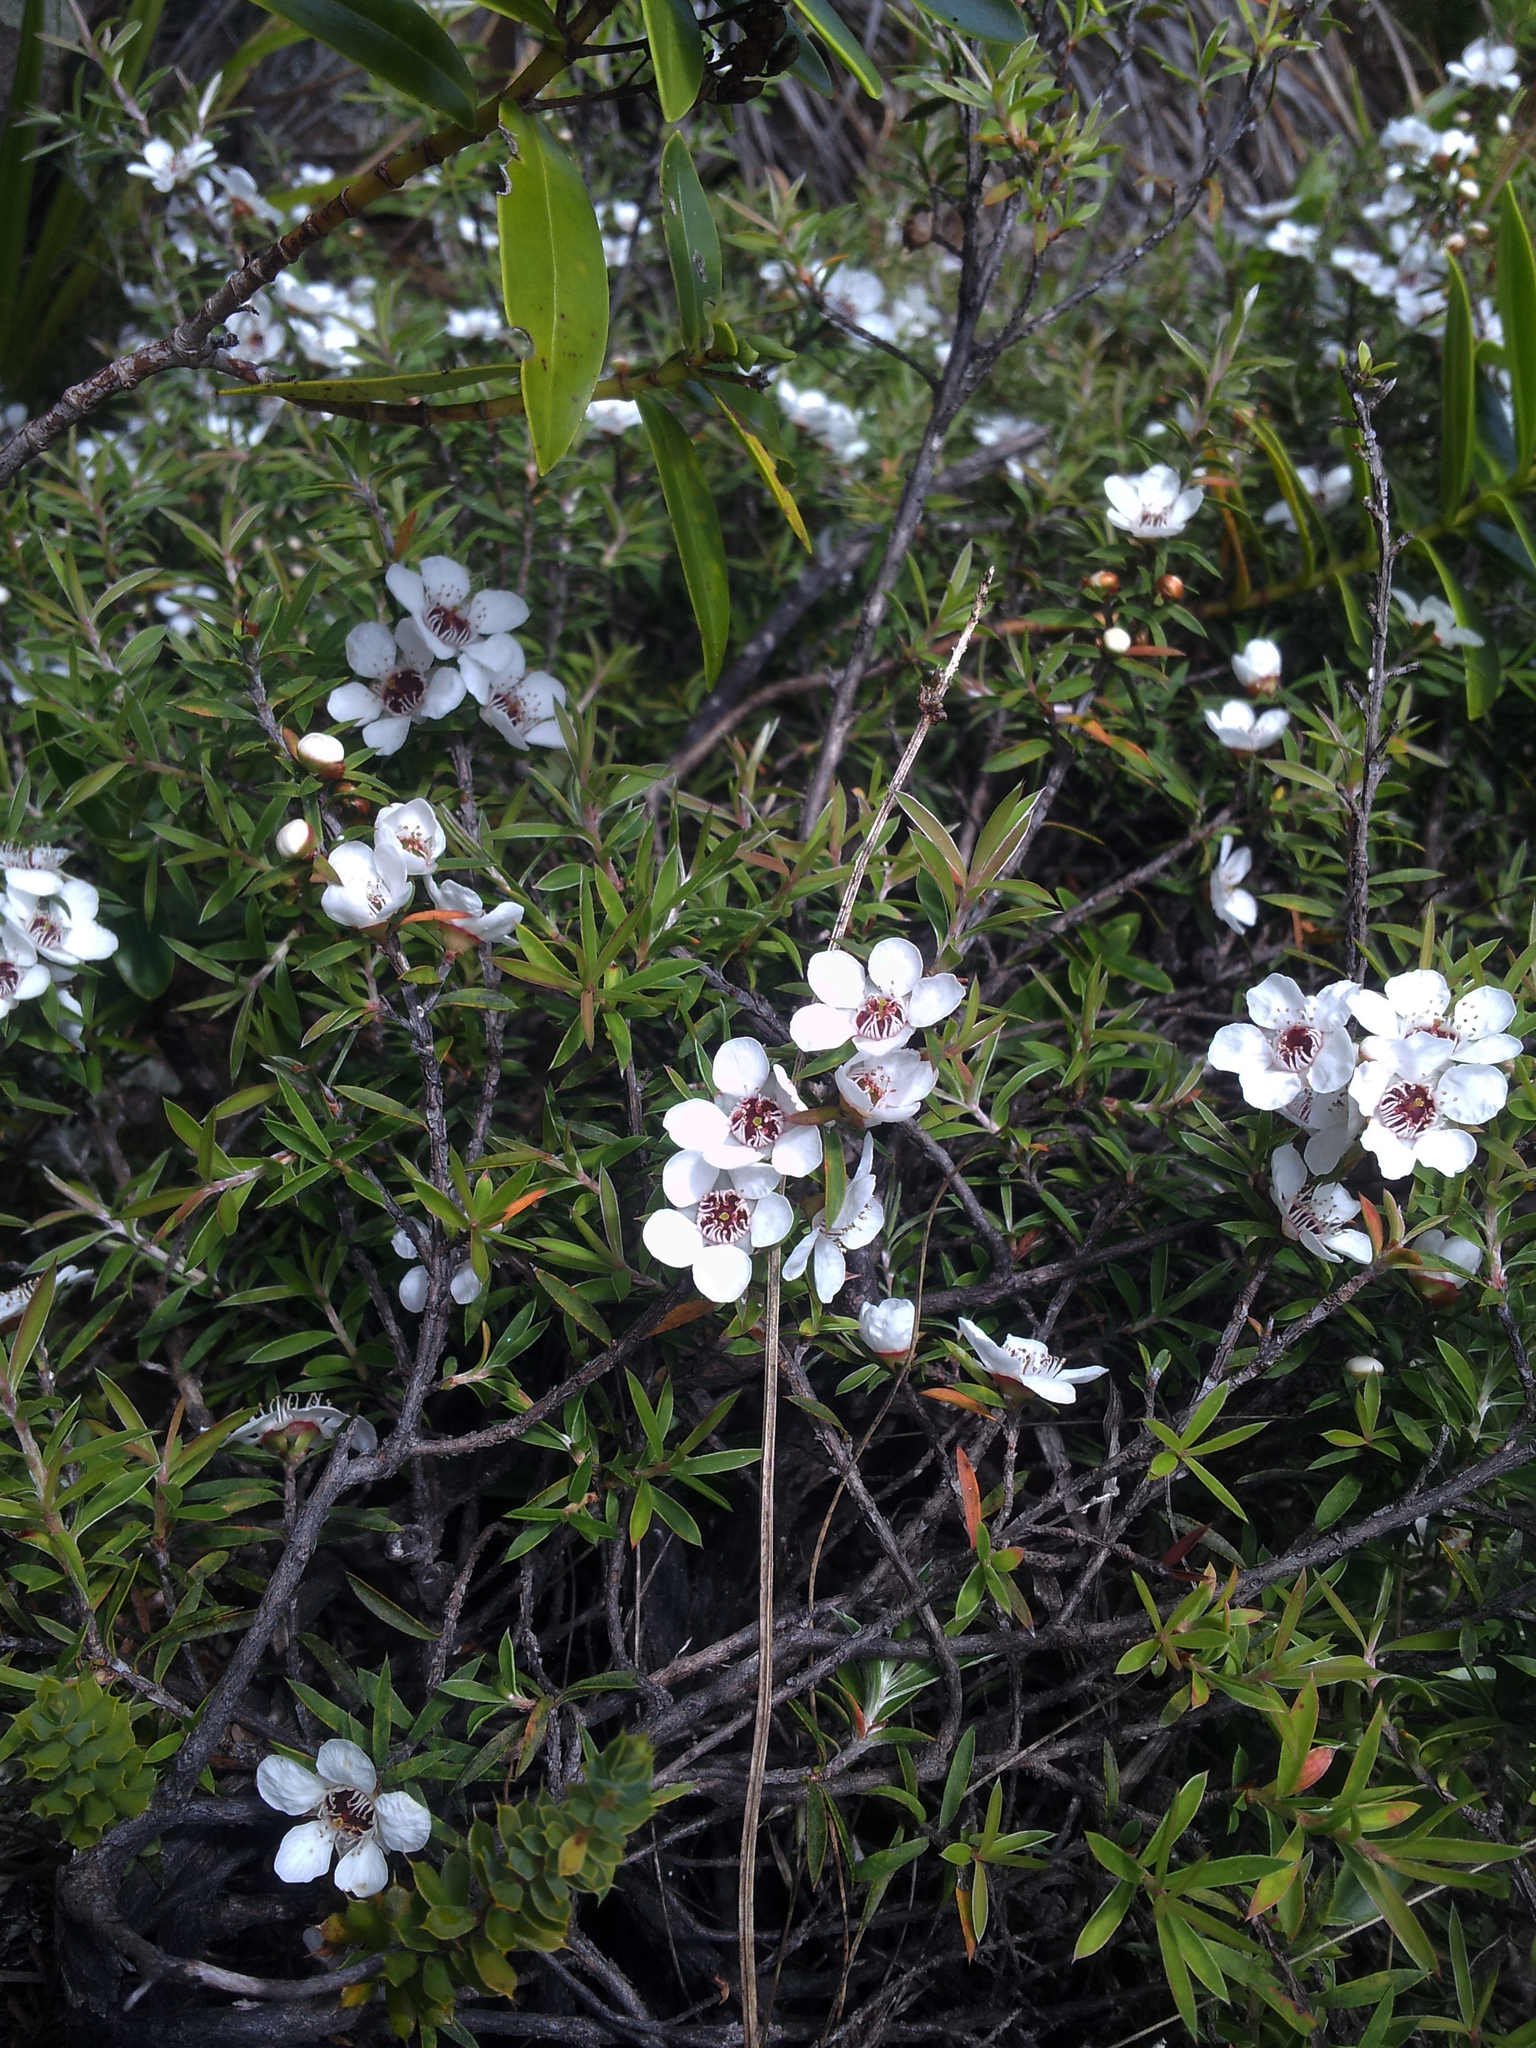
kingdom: Plantae
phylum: Tracheophyta
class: Magnoliopsida
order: Myrtales
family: Myrtaceae
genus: Leptospermum
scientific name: Leptospermum scoparium
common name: Broom tea-tree
